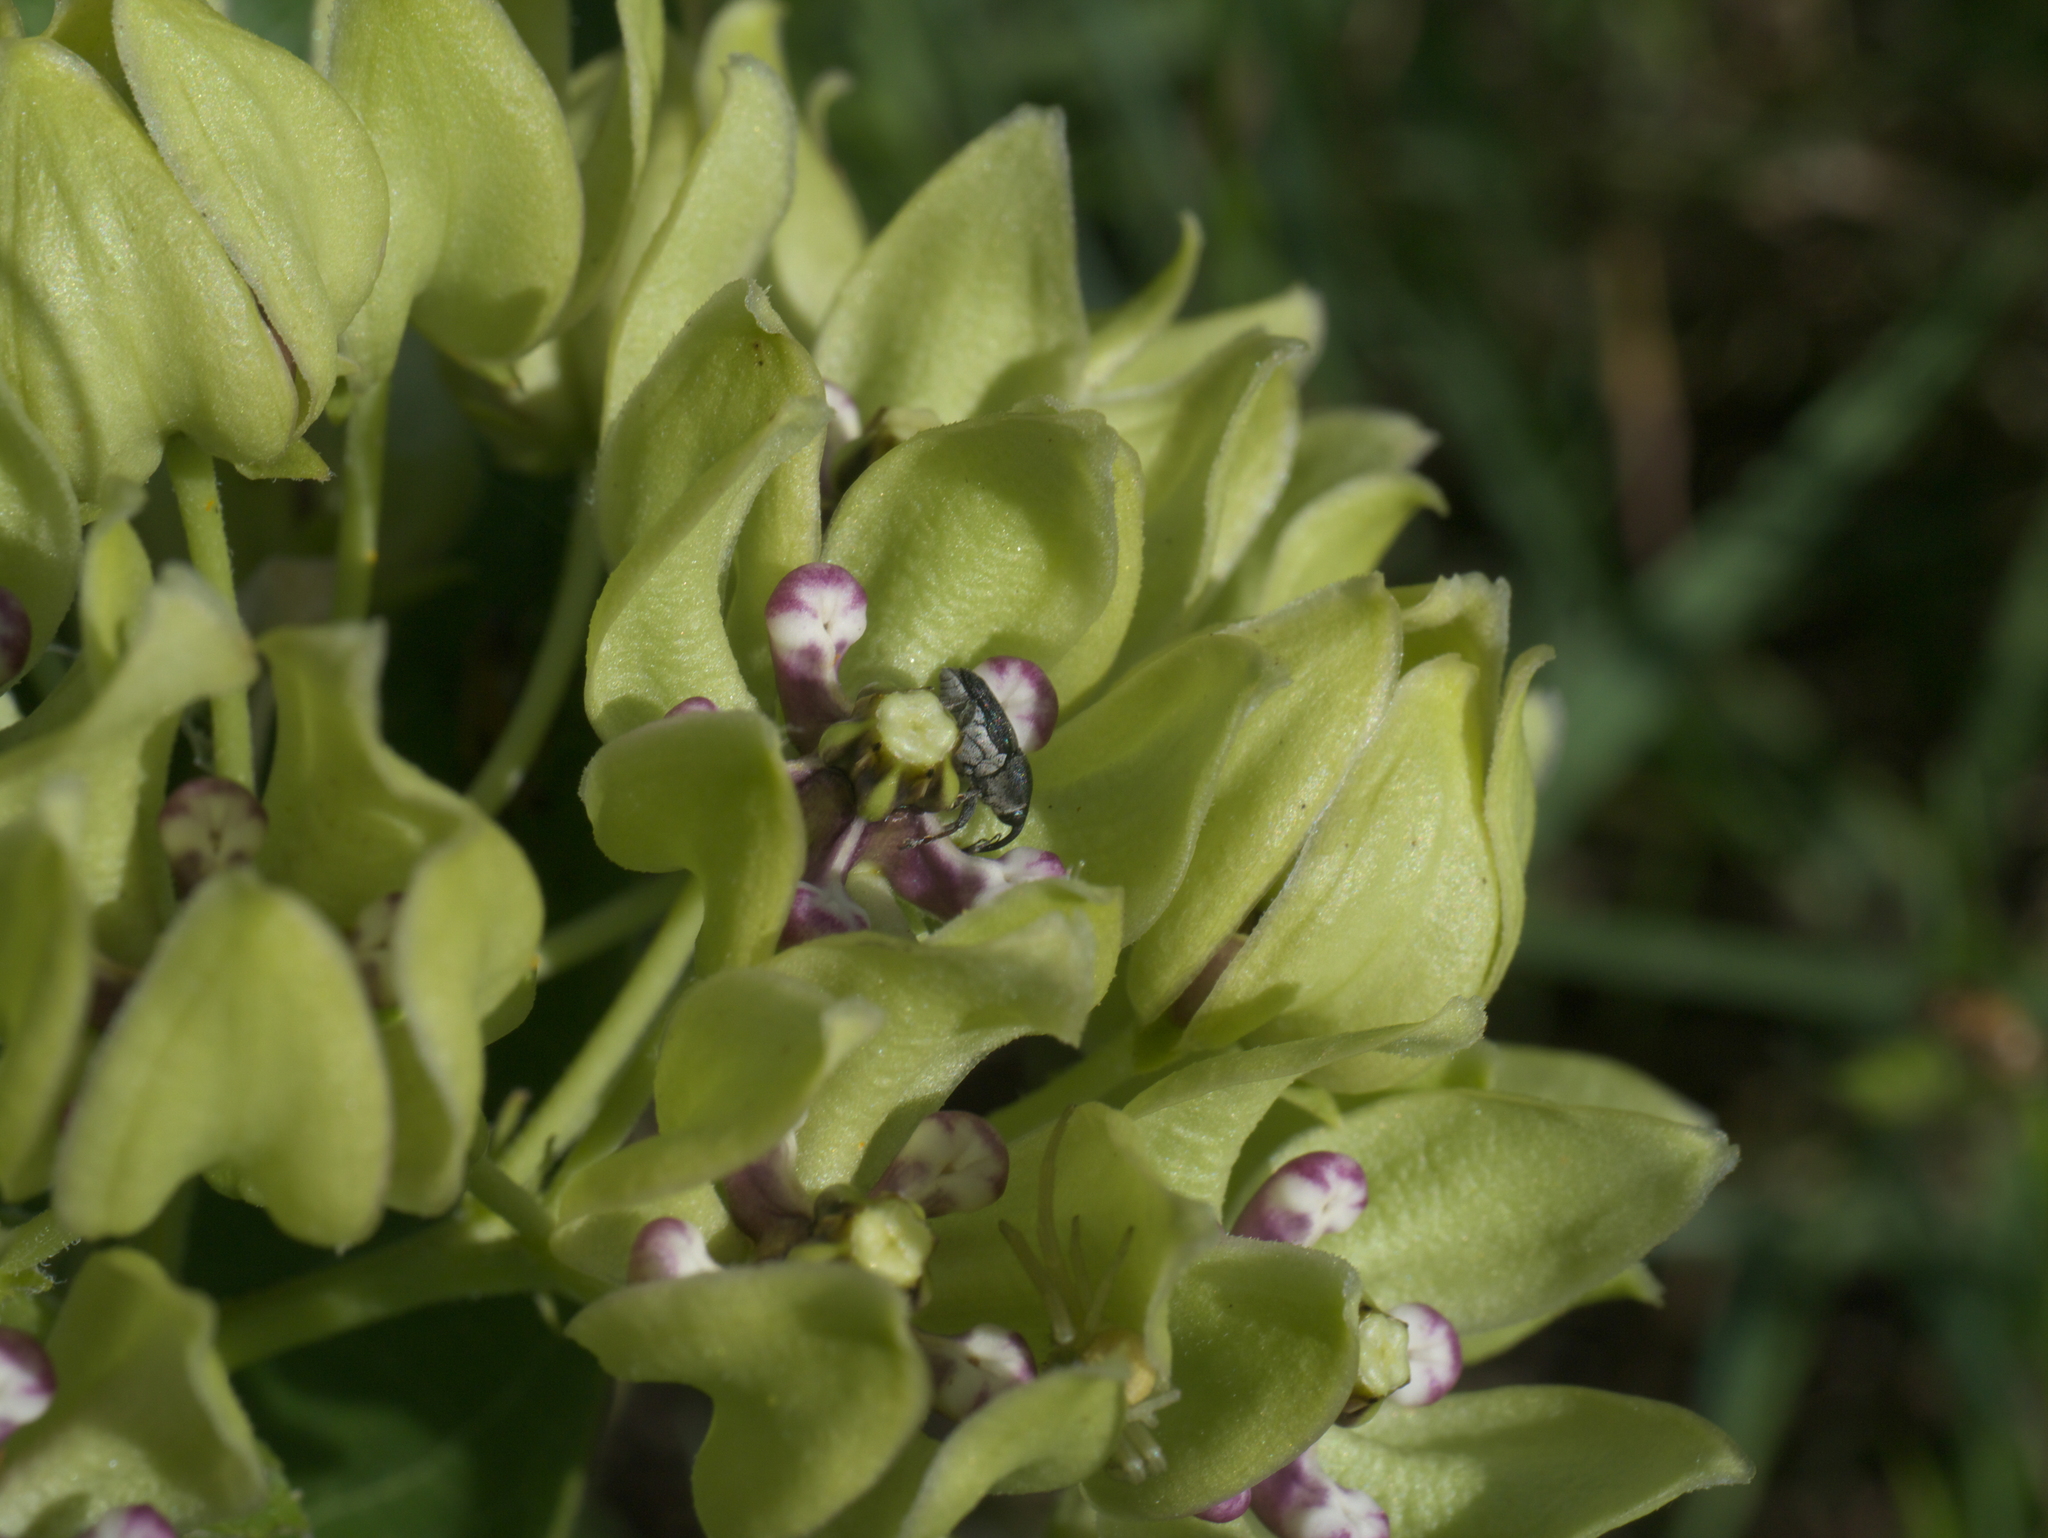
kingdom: Plantae
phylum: Tracheophyta
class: Magnoliopsida
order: Gentianales
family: Apocynaceae
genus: Asclepias
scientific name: Asclepias viridis
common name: Antelope-horns
